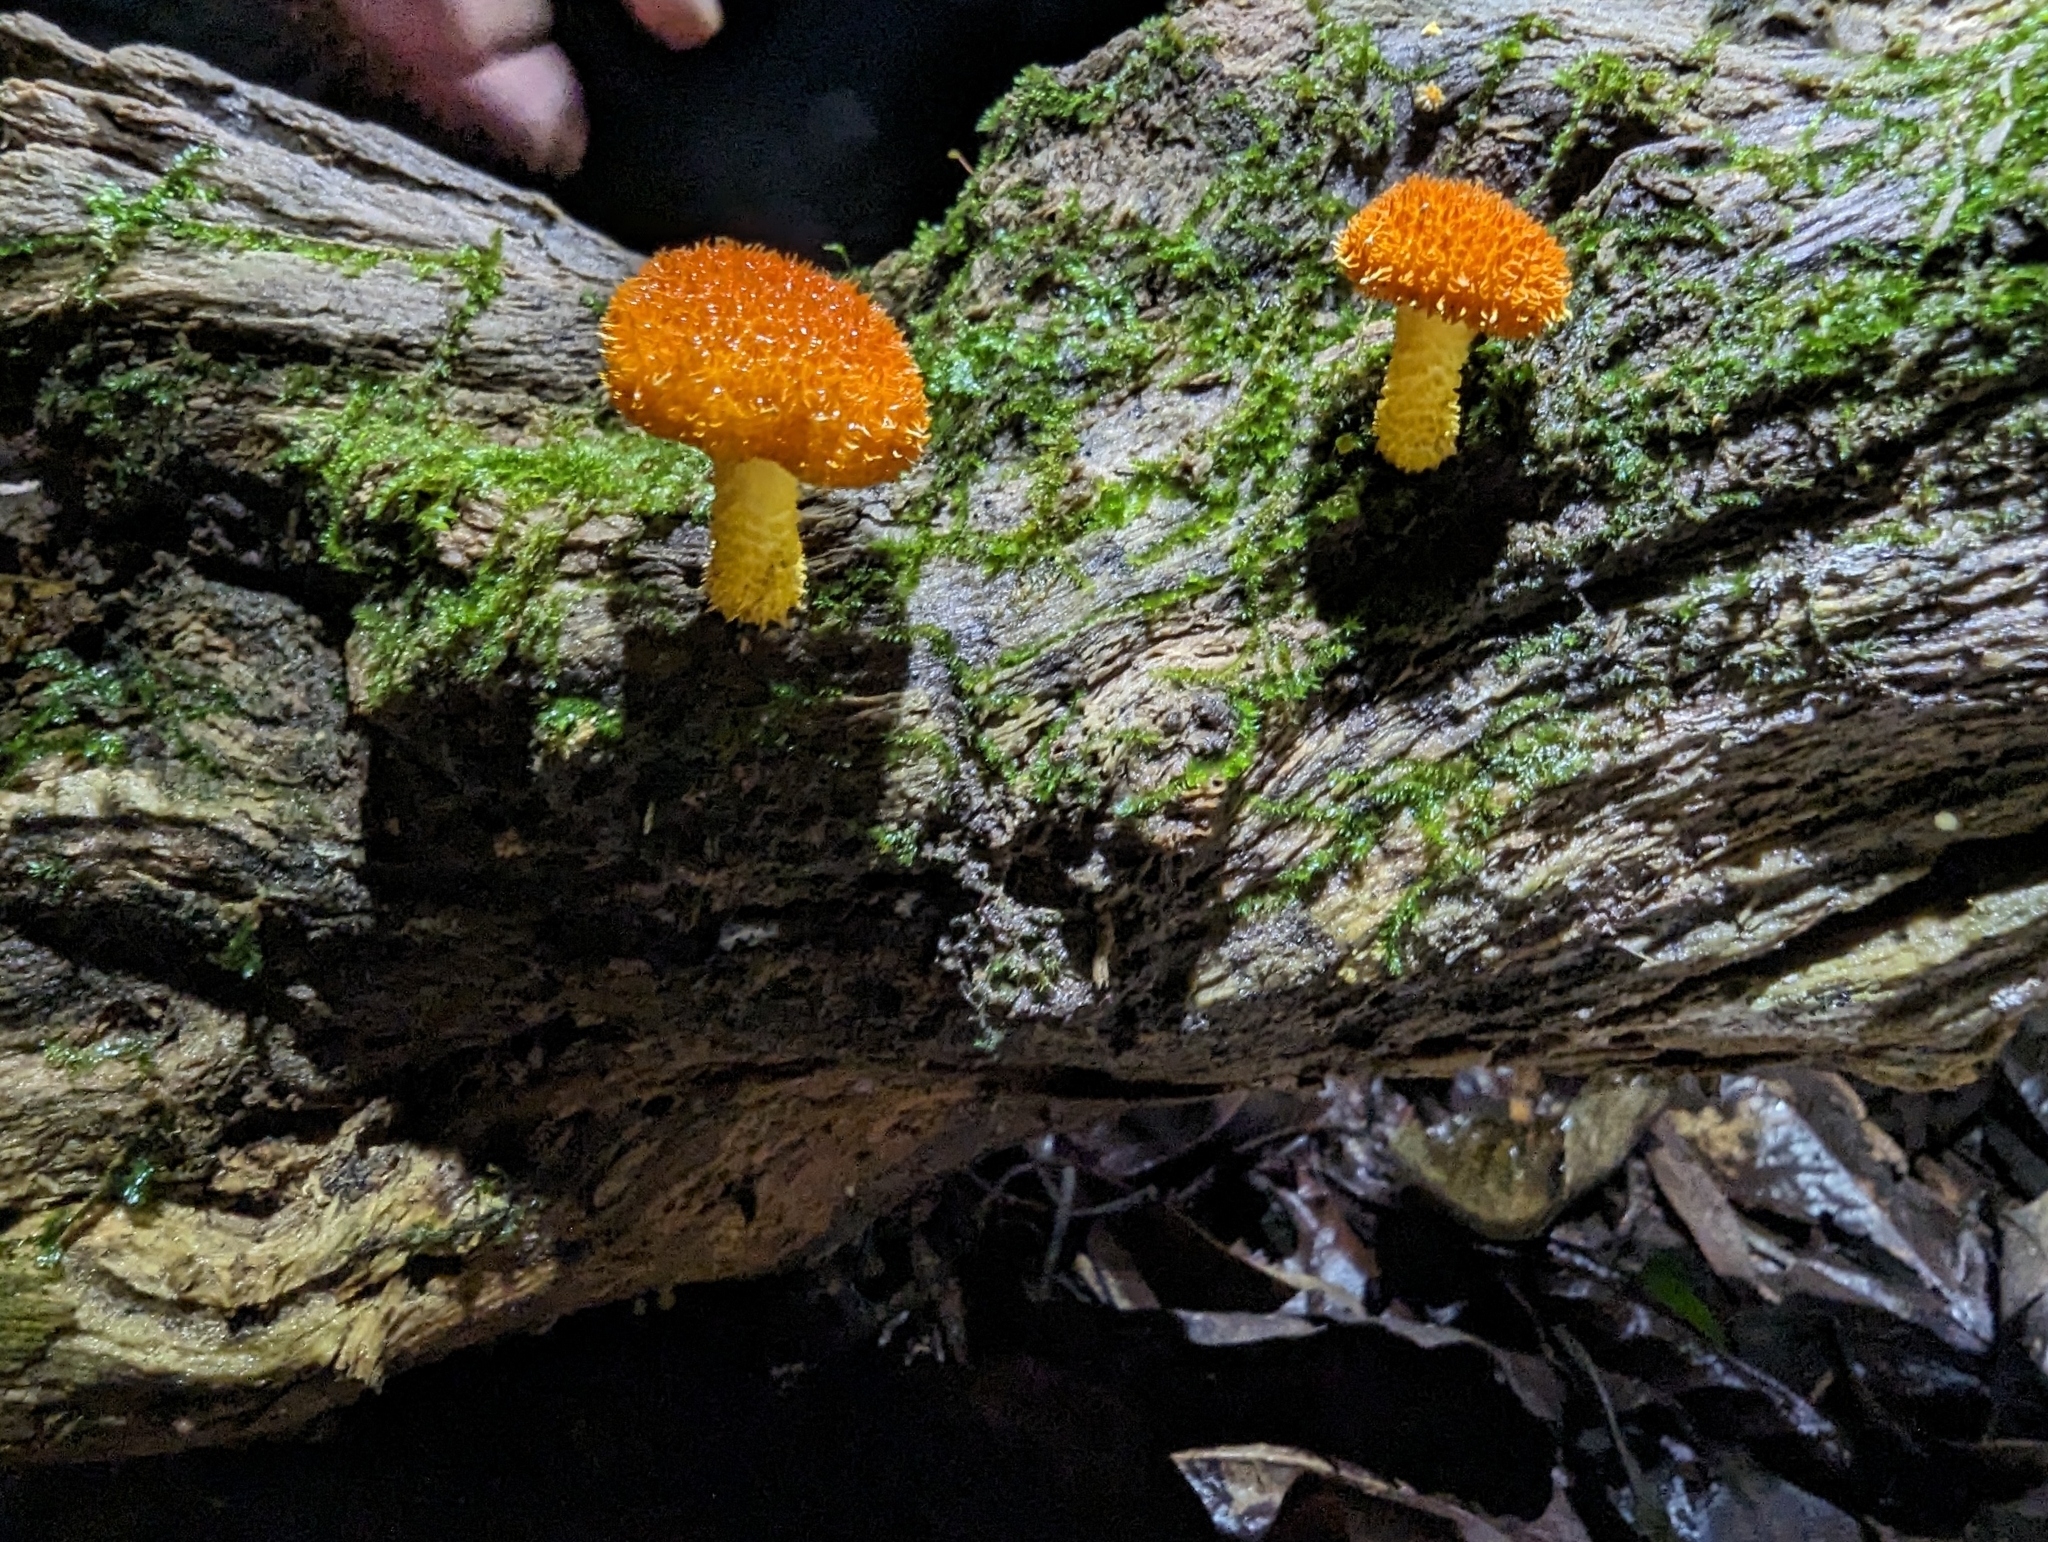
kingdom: Fungi
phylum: Basidiomycota
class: Agaricomycetes
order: Agaricales
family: Physalacriaceae
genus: Cyptotrama
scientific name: Cyptotrama asprata
